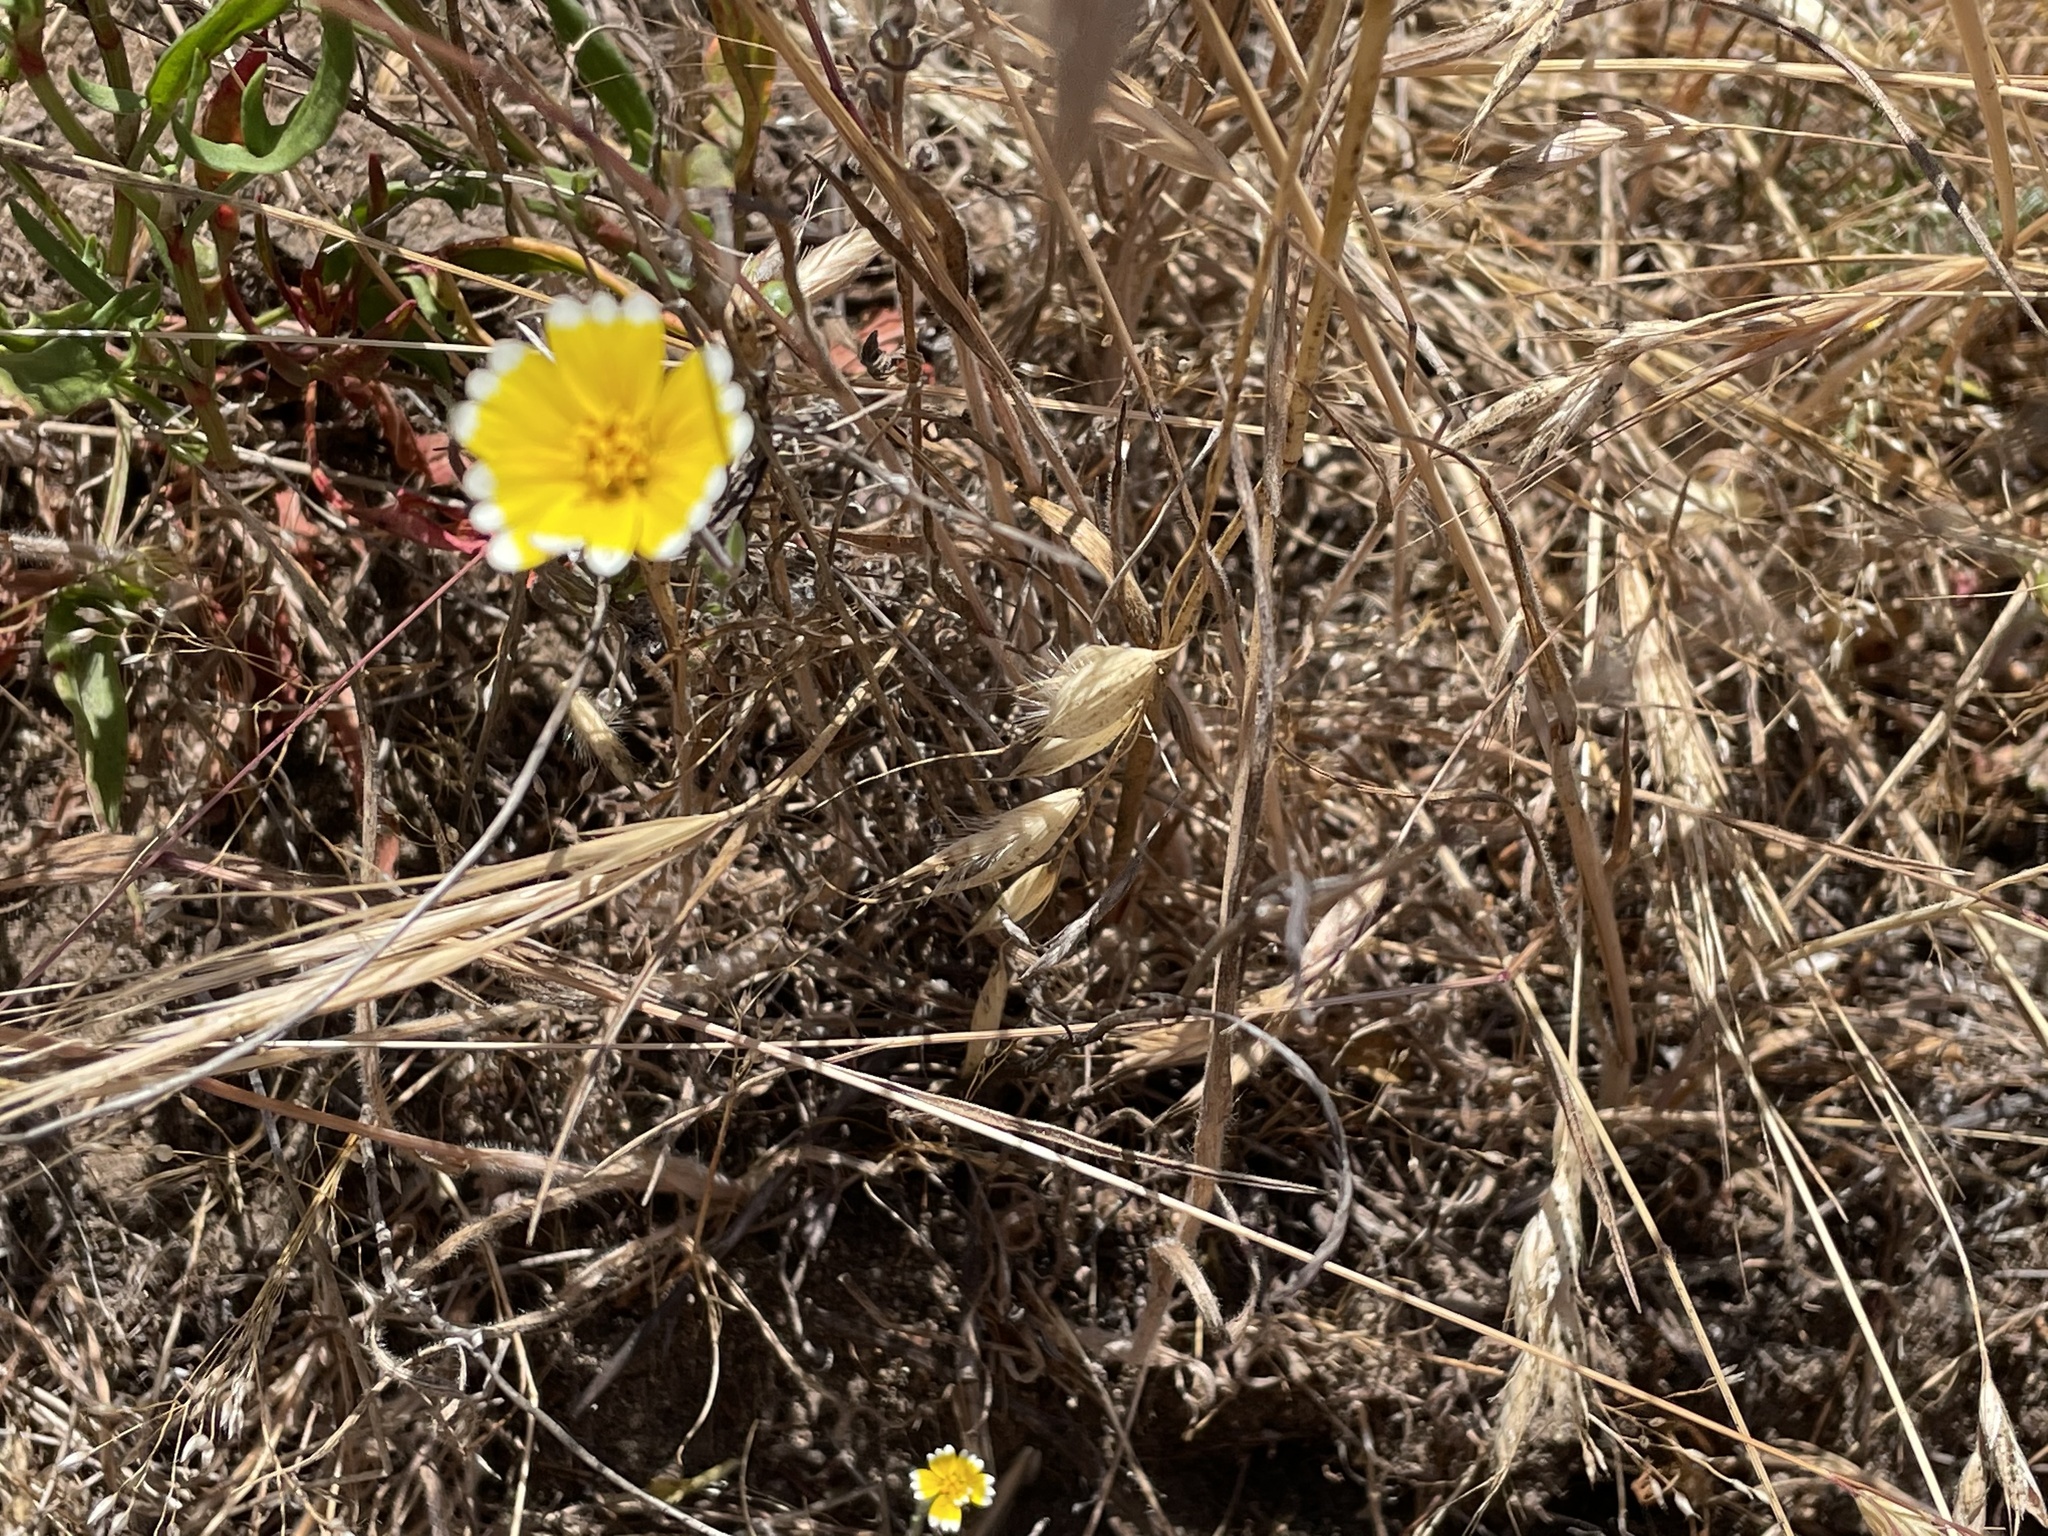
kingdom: Plantae
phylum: Tracheophyta
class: Magnoliopsida
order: Asterales
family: Asteraceae
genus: Layia
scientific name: Layia platyglossa
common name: Tidy-tips
